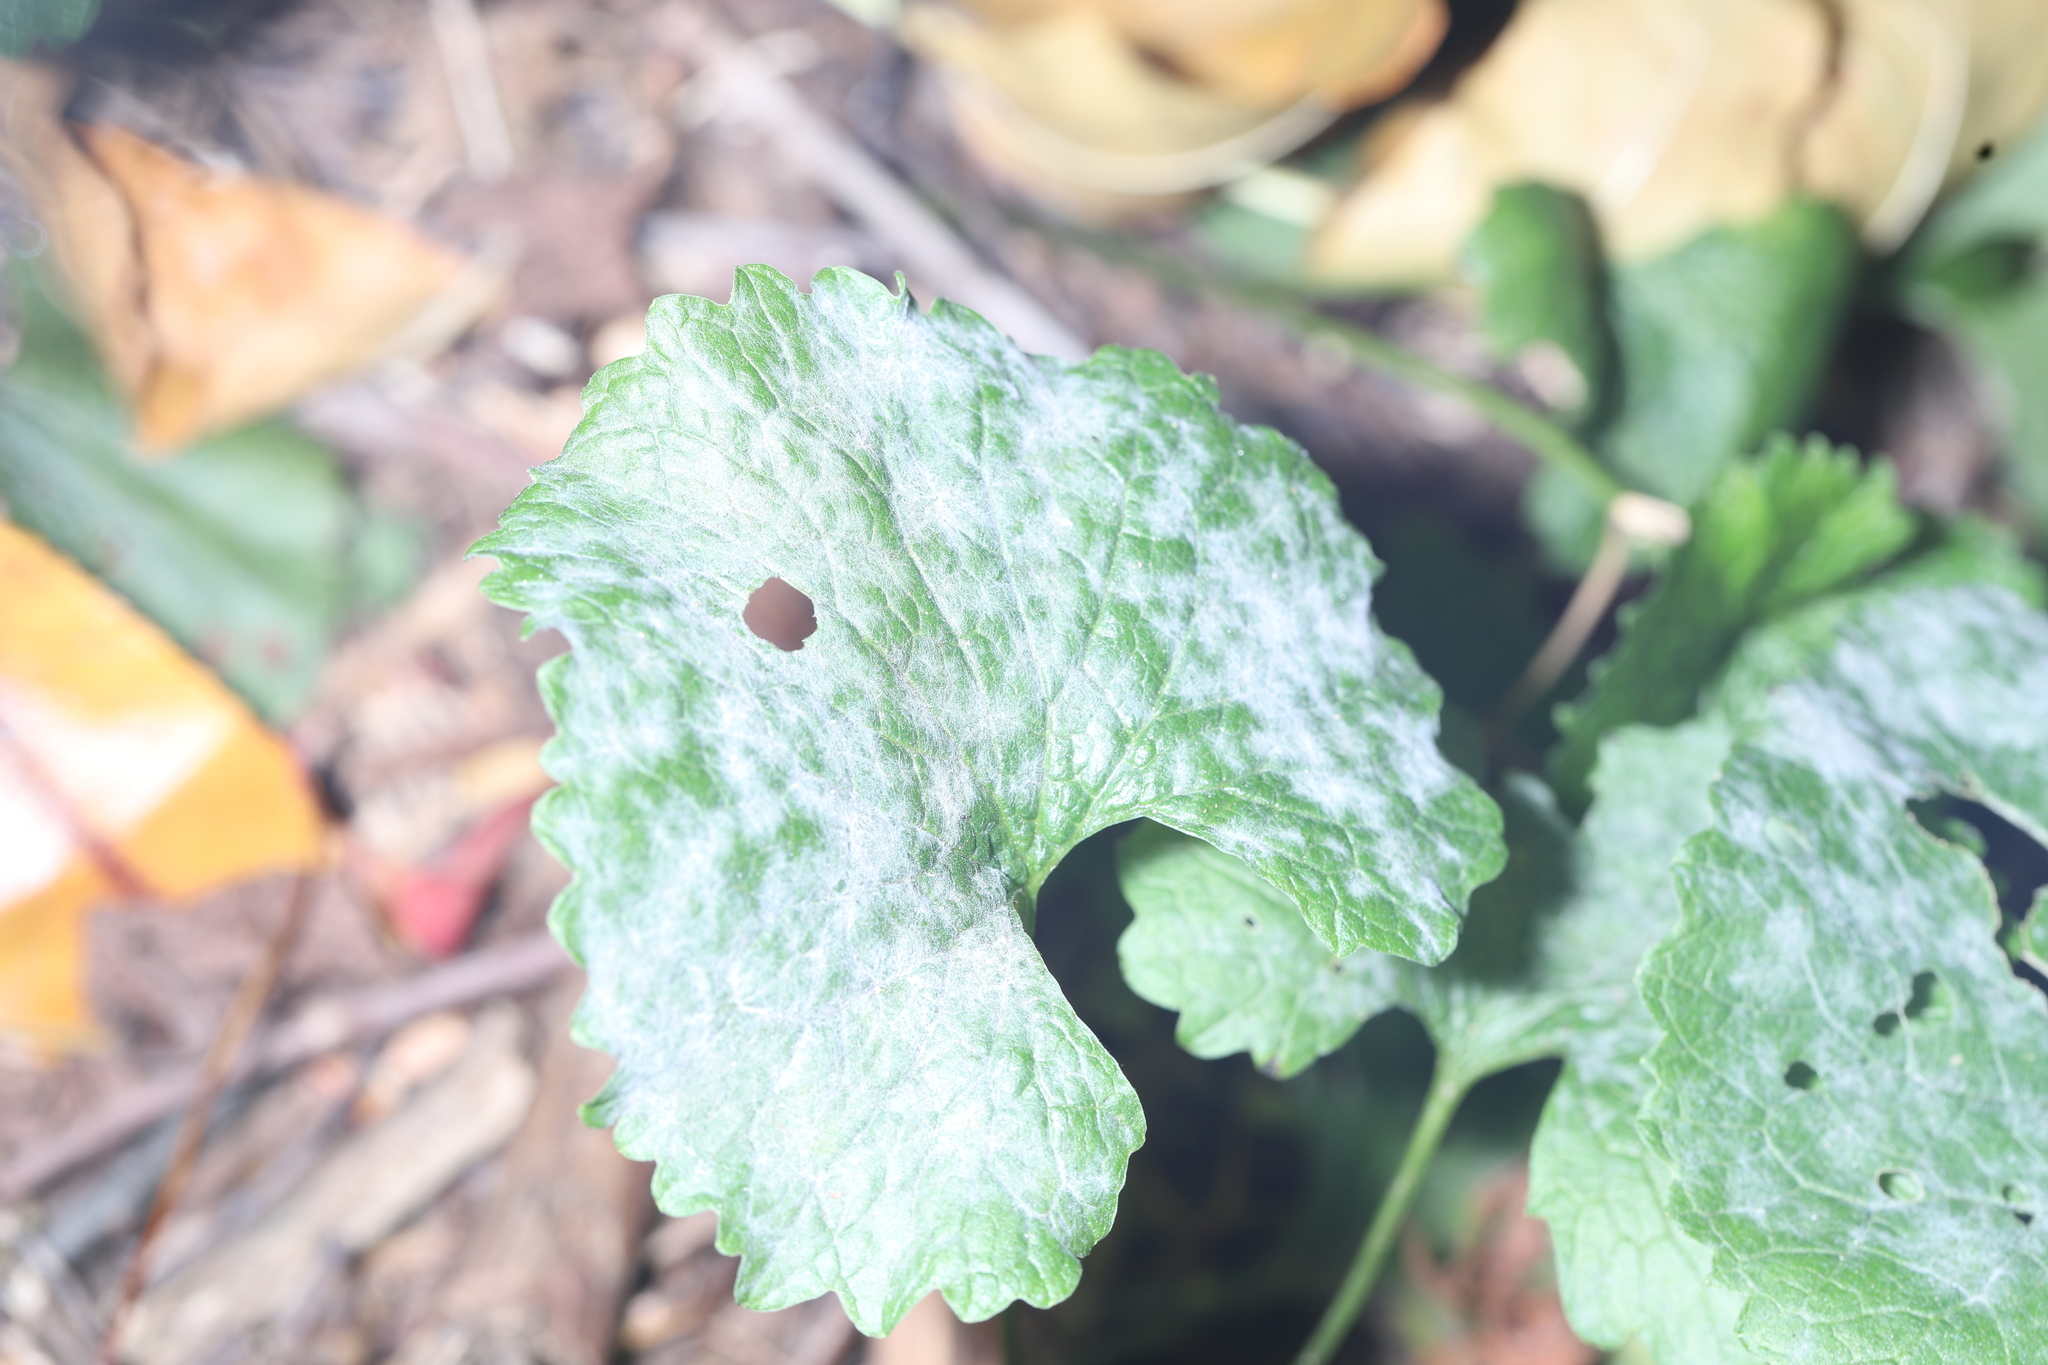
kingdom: Fungi
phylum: Ascomycota
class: Leotiomycetes
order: Helotiales
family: Erysiphaceae
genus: Erysiphe
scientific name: Erysiphe cruciferarum
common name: Brassica powdery mildew
